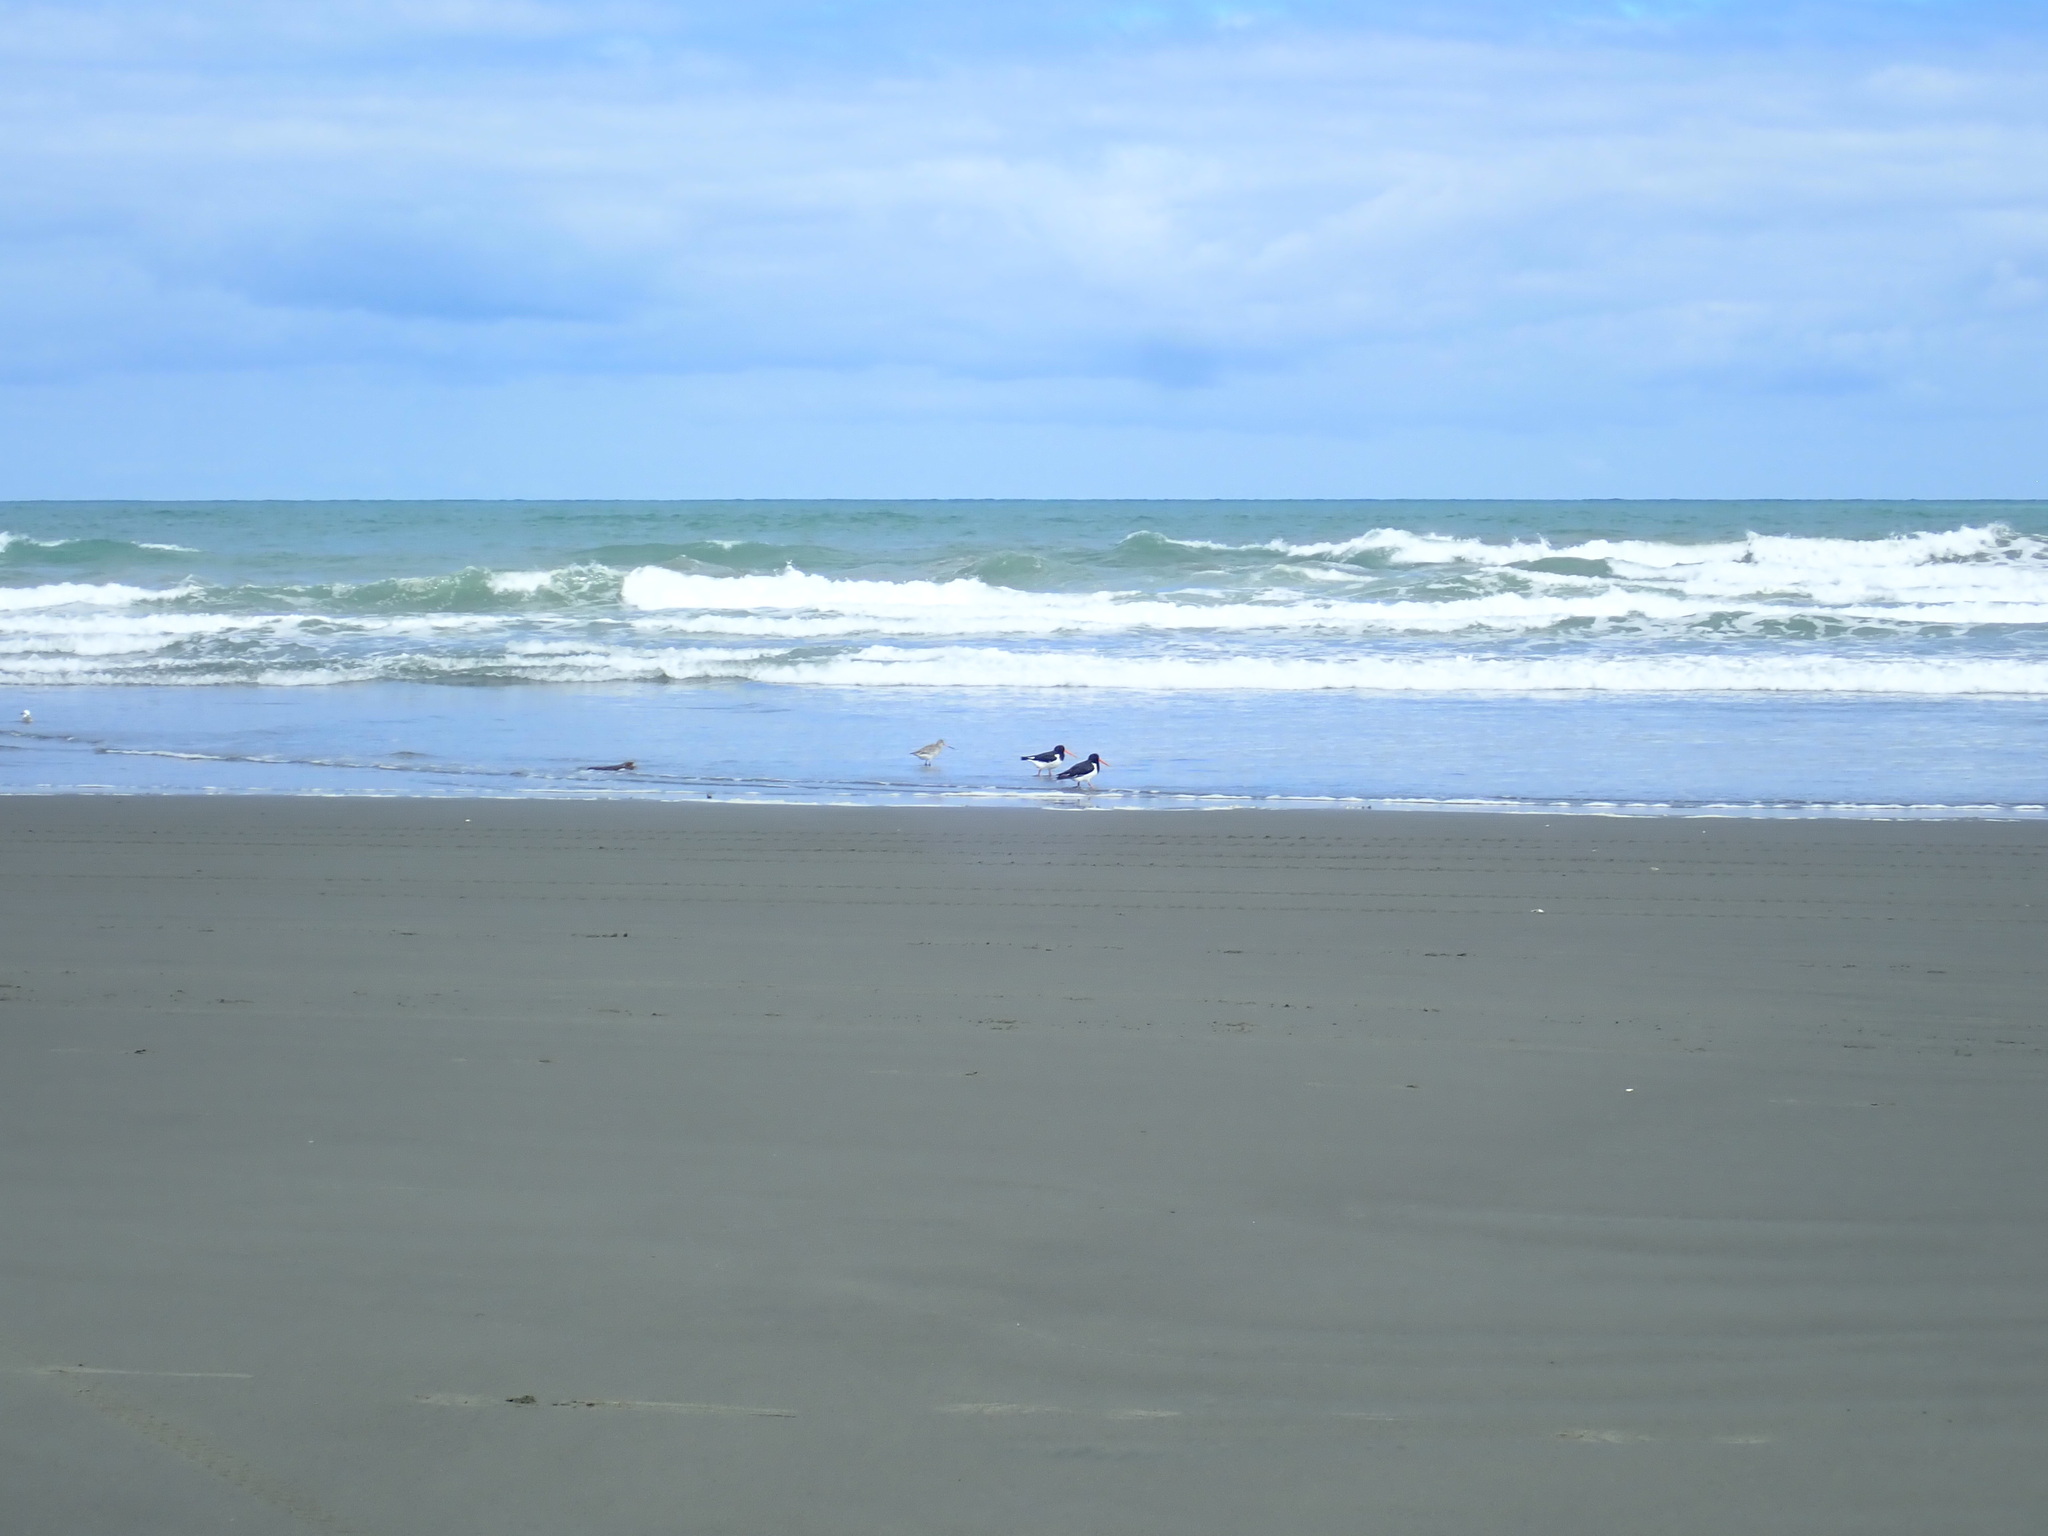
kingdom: Animalia
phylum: Chordata
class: Aves
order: Charadriiformes
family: Haematopodidae
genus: Haematopus
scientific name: Haematopus finschi
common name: South island oystercatcher
